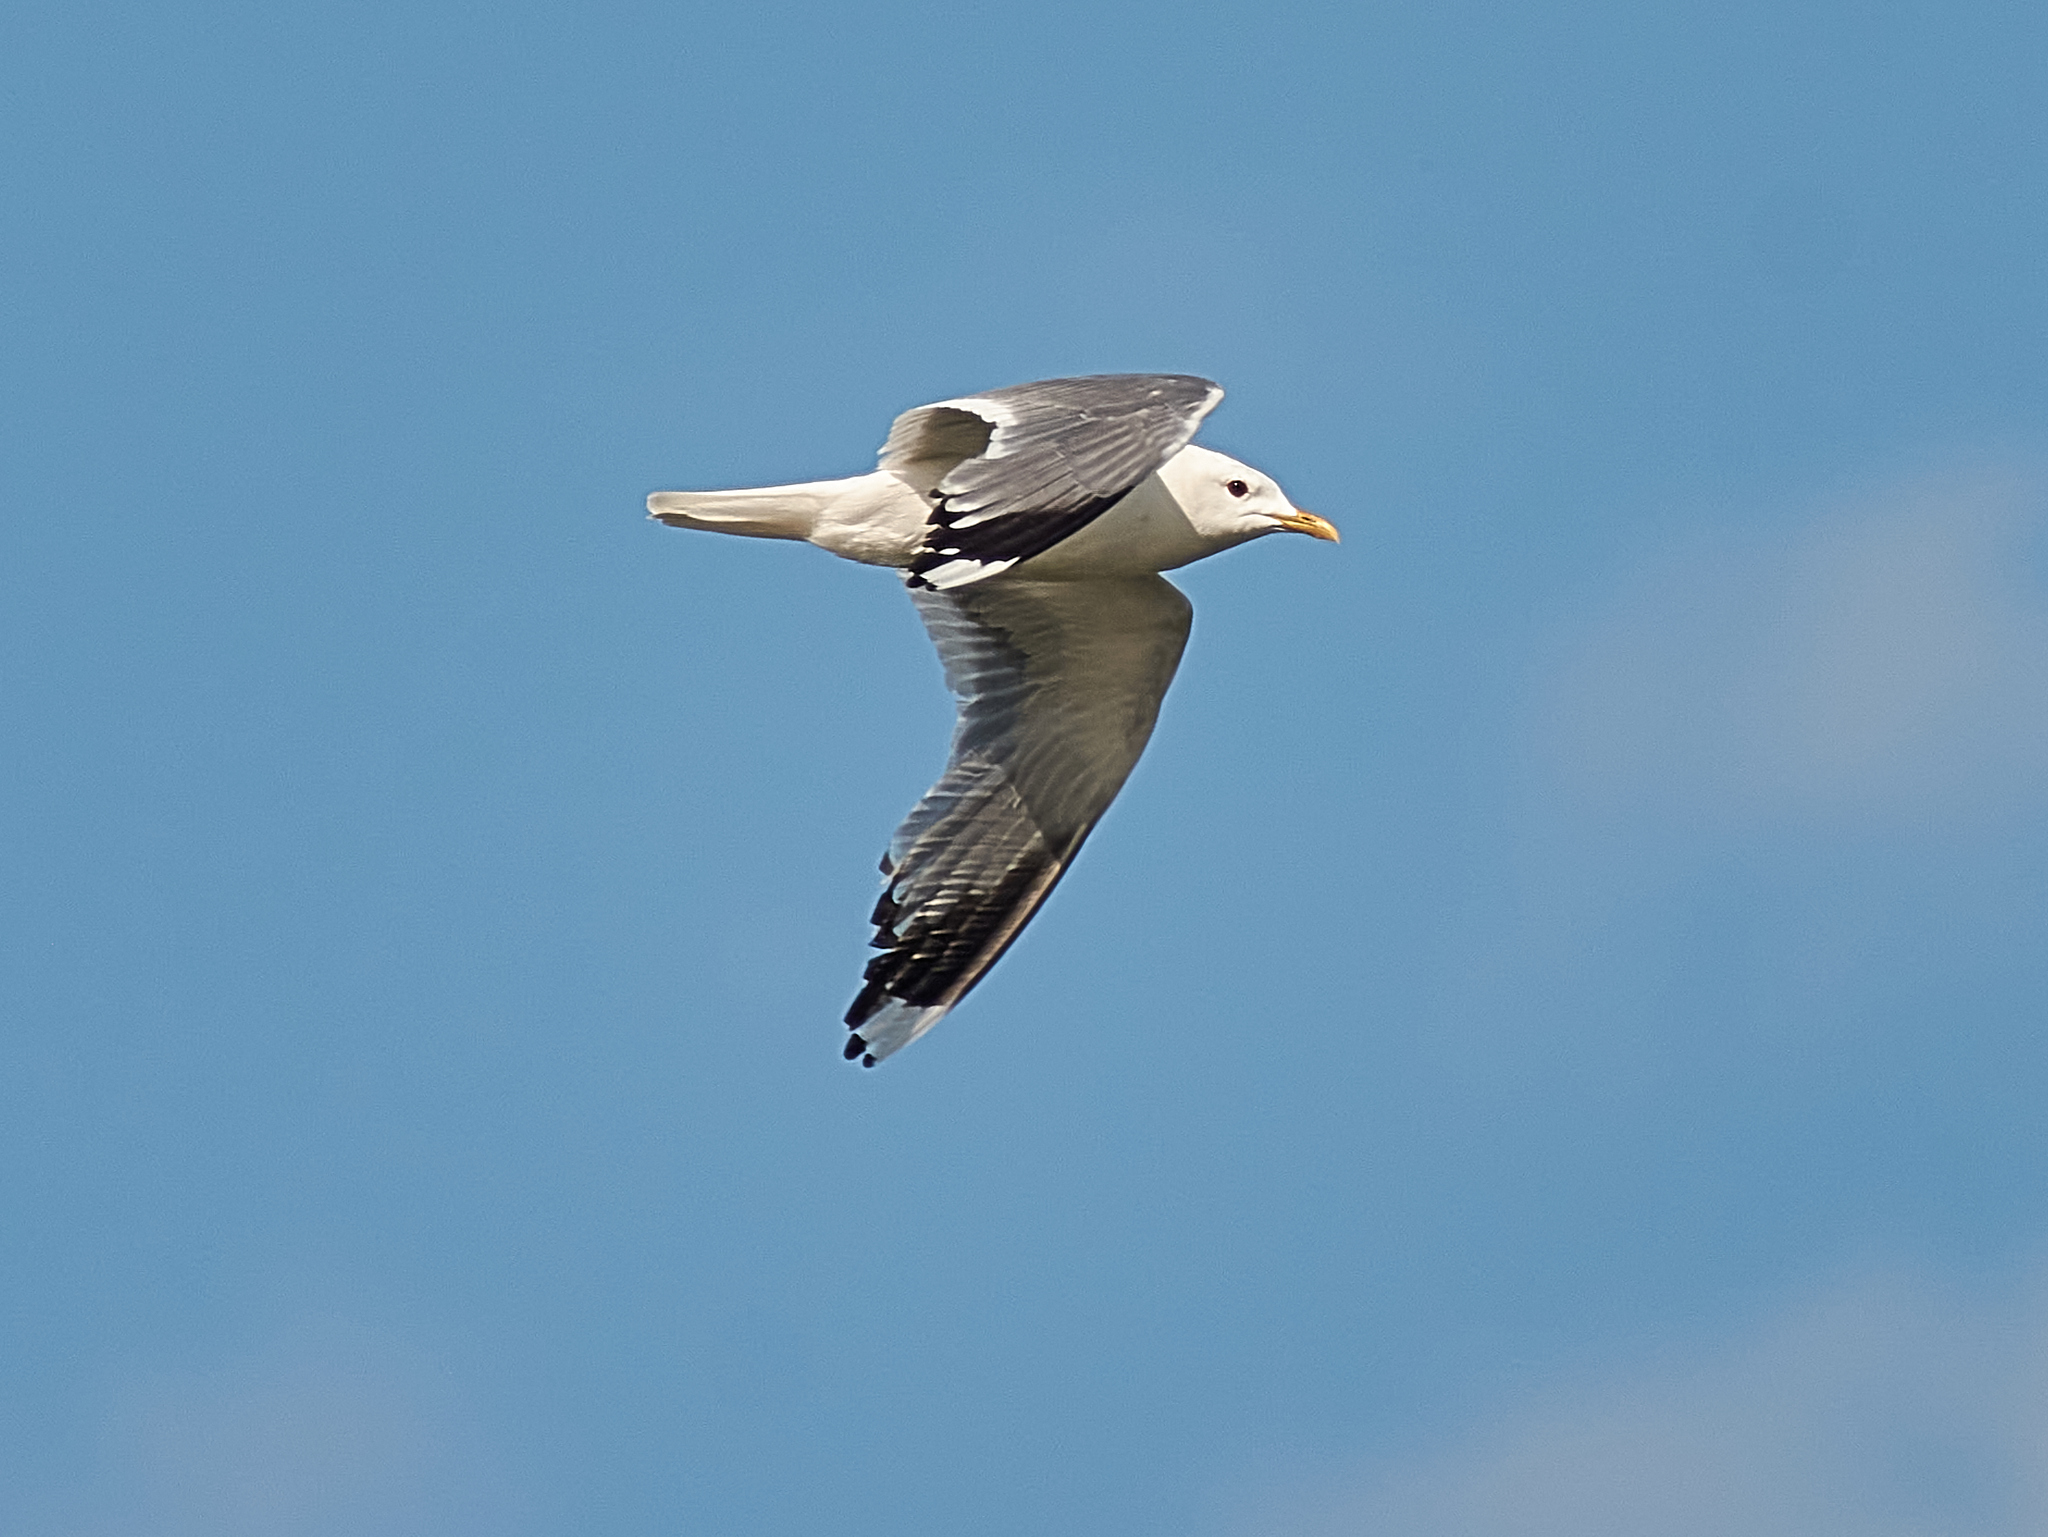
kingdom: Animalia
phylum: Chordata
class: Aves
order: Charadriiformes
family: Laridae
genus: Larus
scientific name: Larus canus
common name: Mew gull
